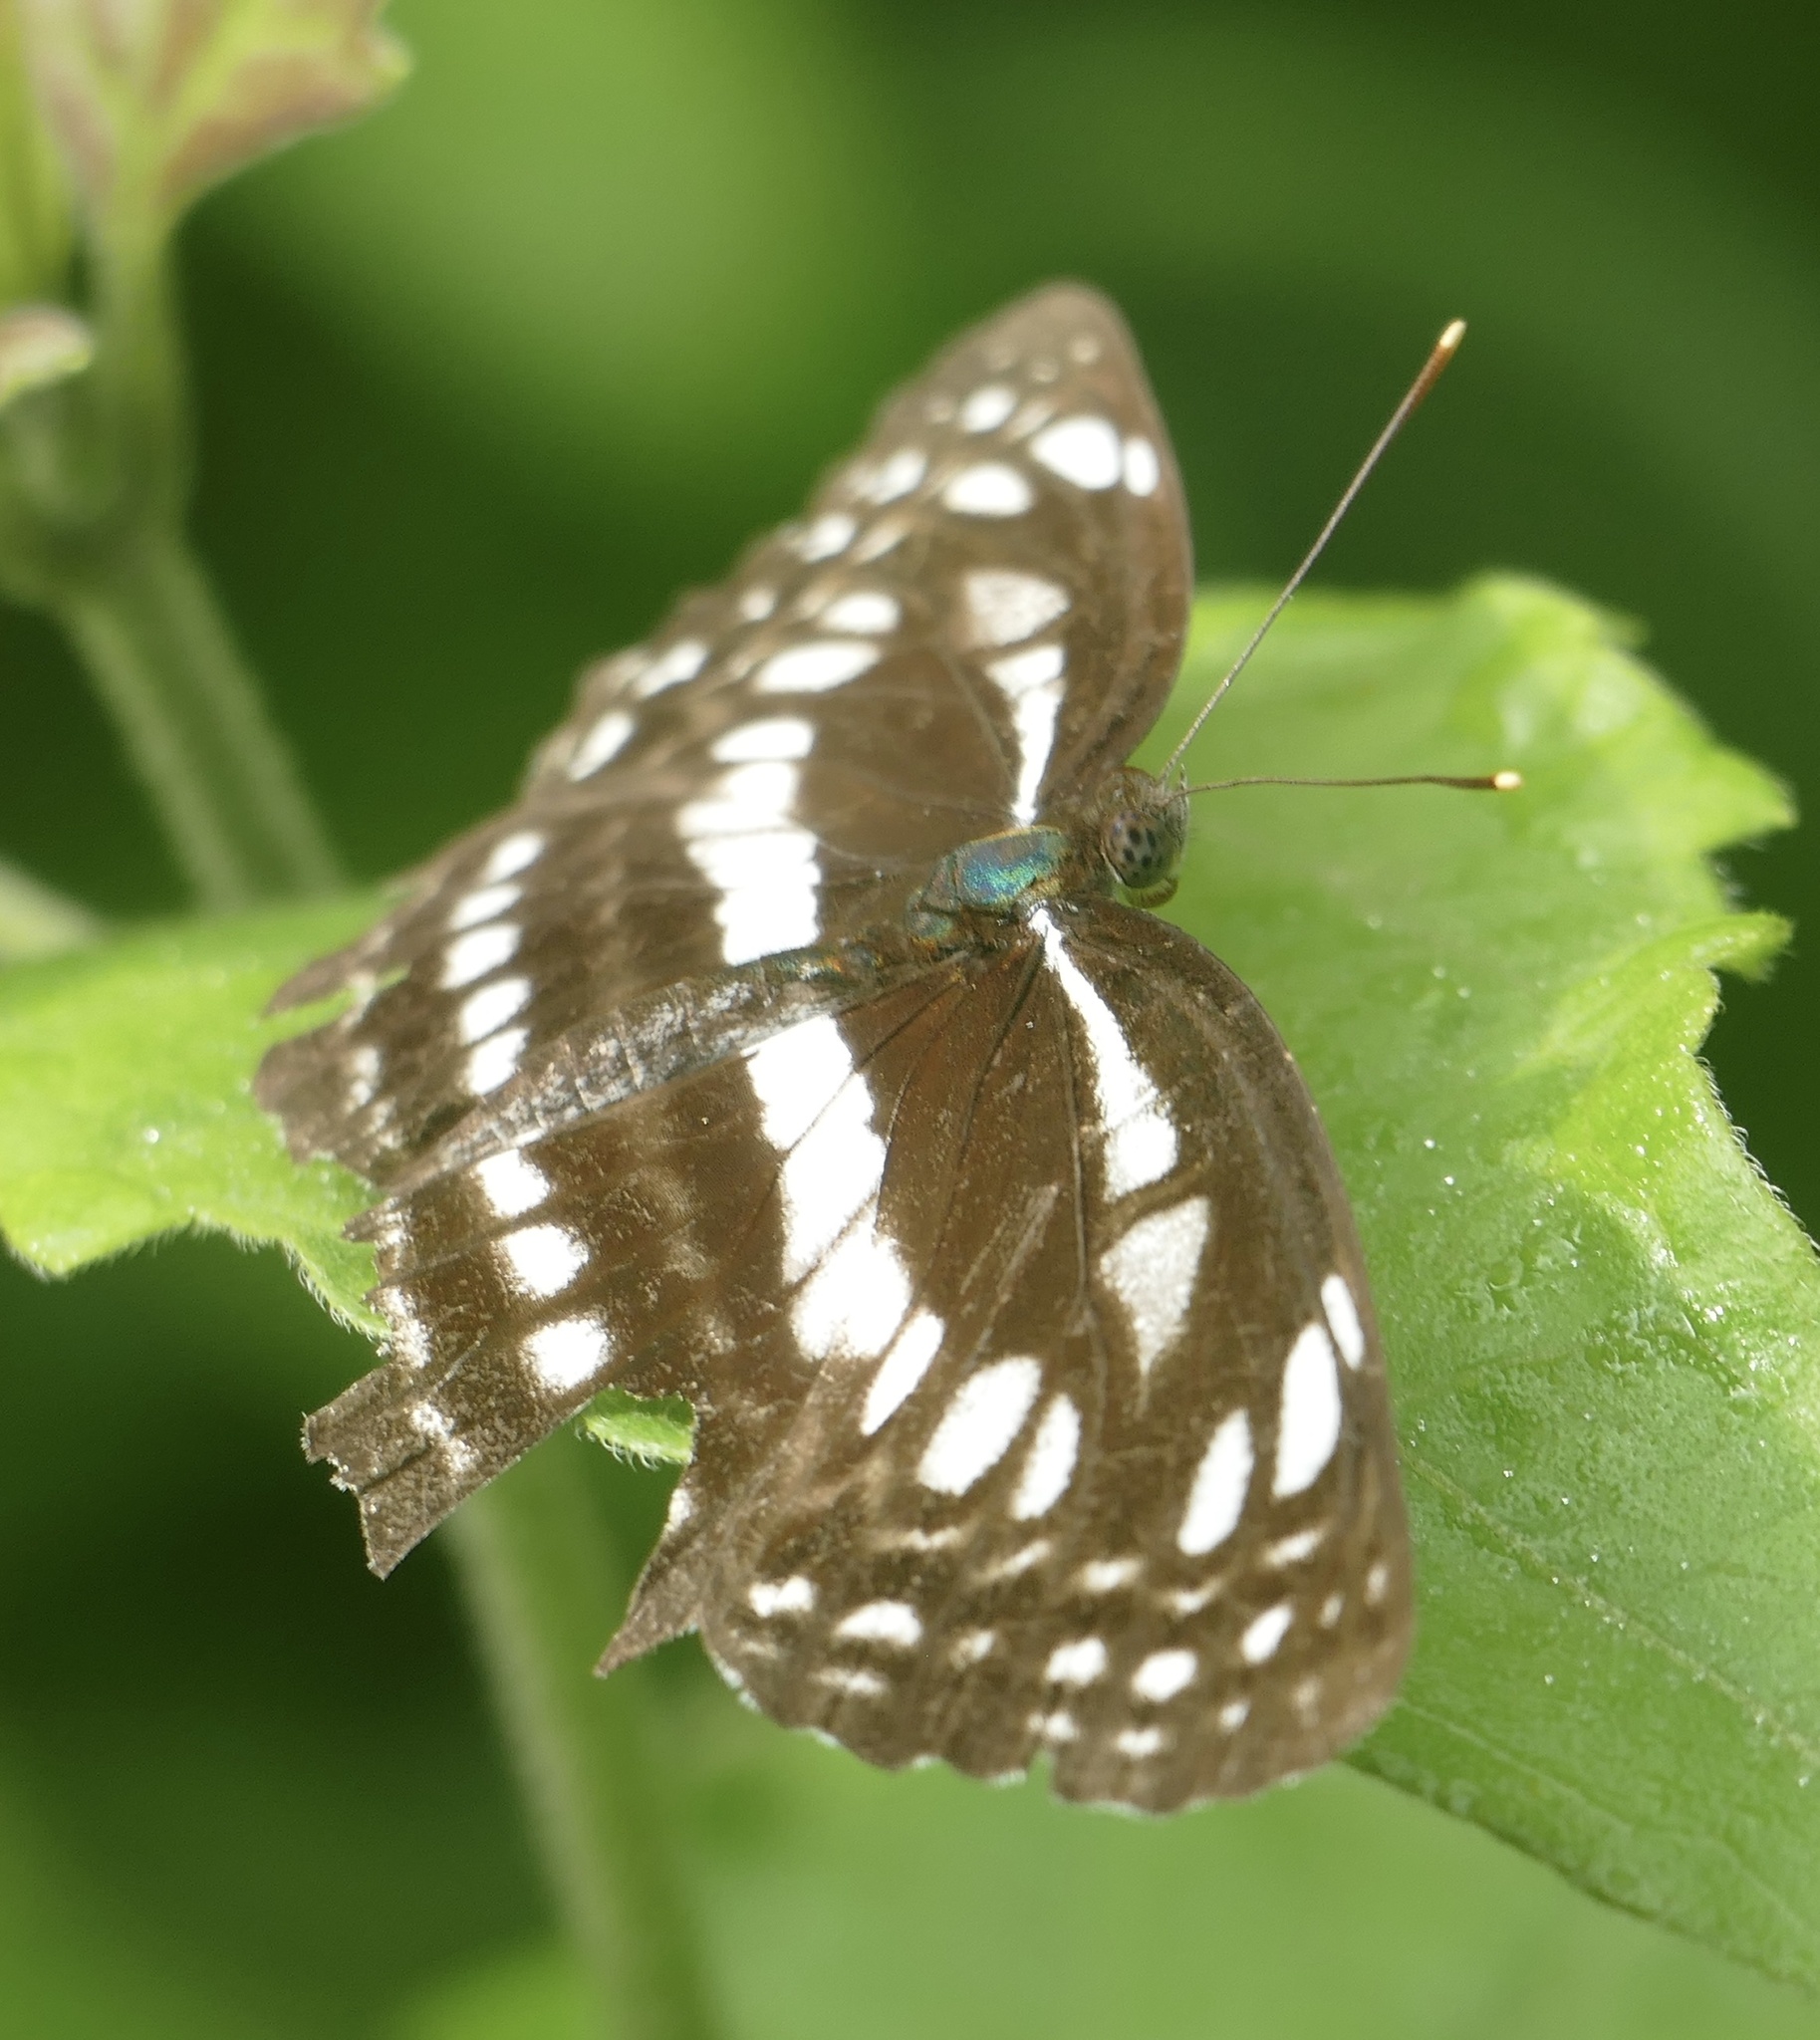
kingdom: Animalia
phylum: Arthropoda
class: Insecta
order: Lepidoptera
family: Nymphalidae
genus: Neptis
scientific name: Neptis ida
